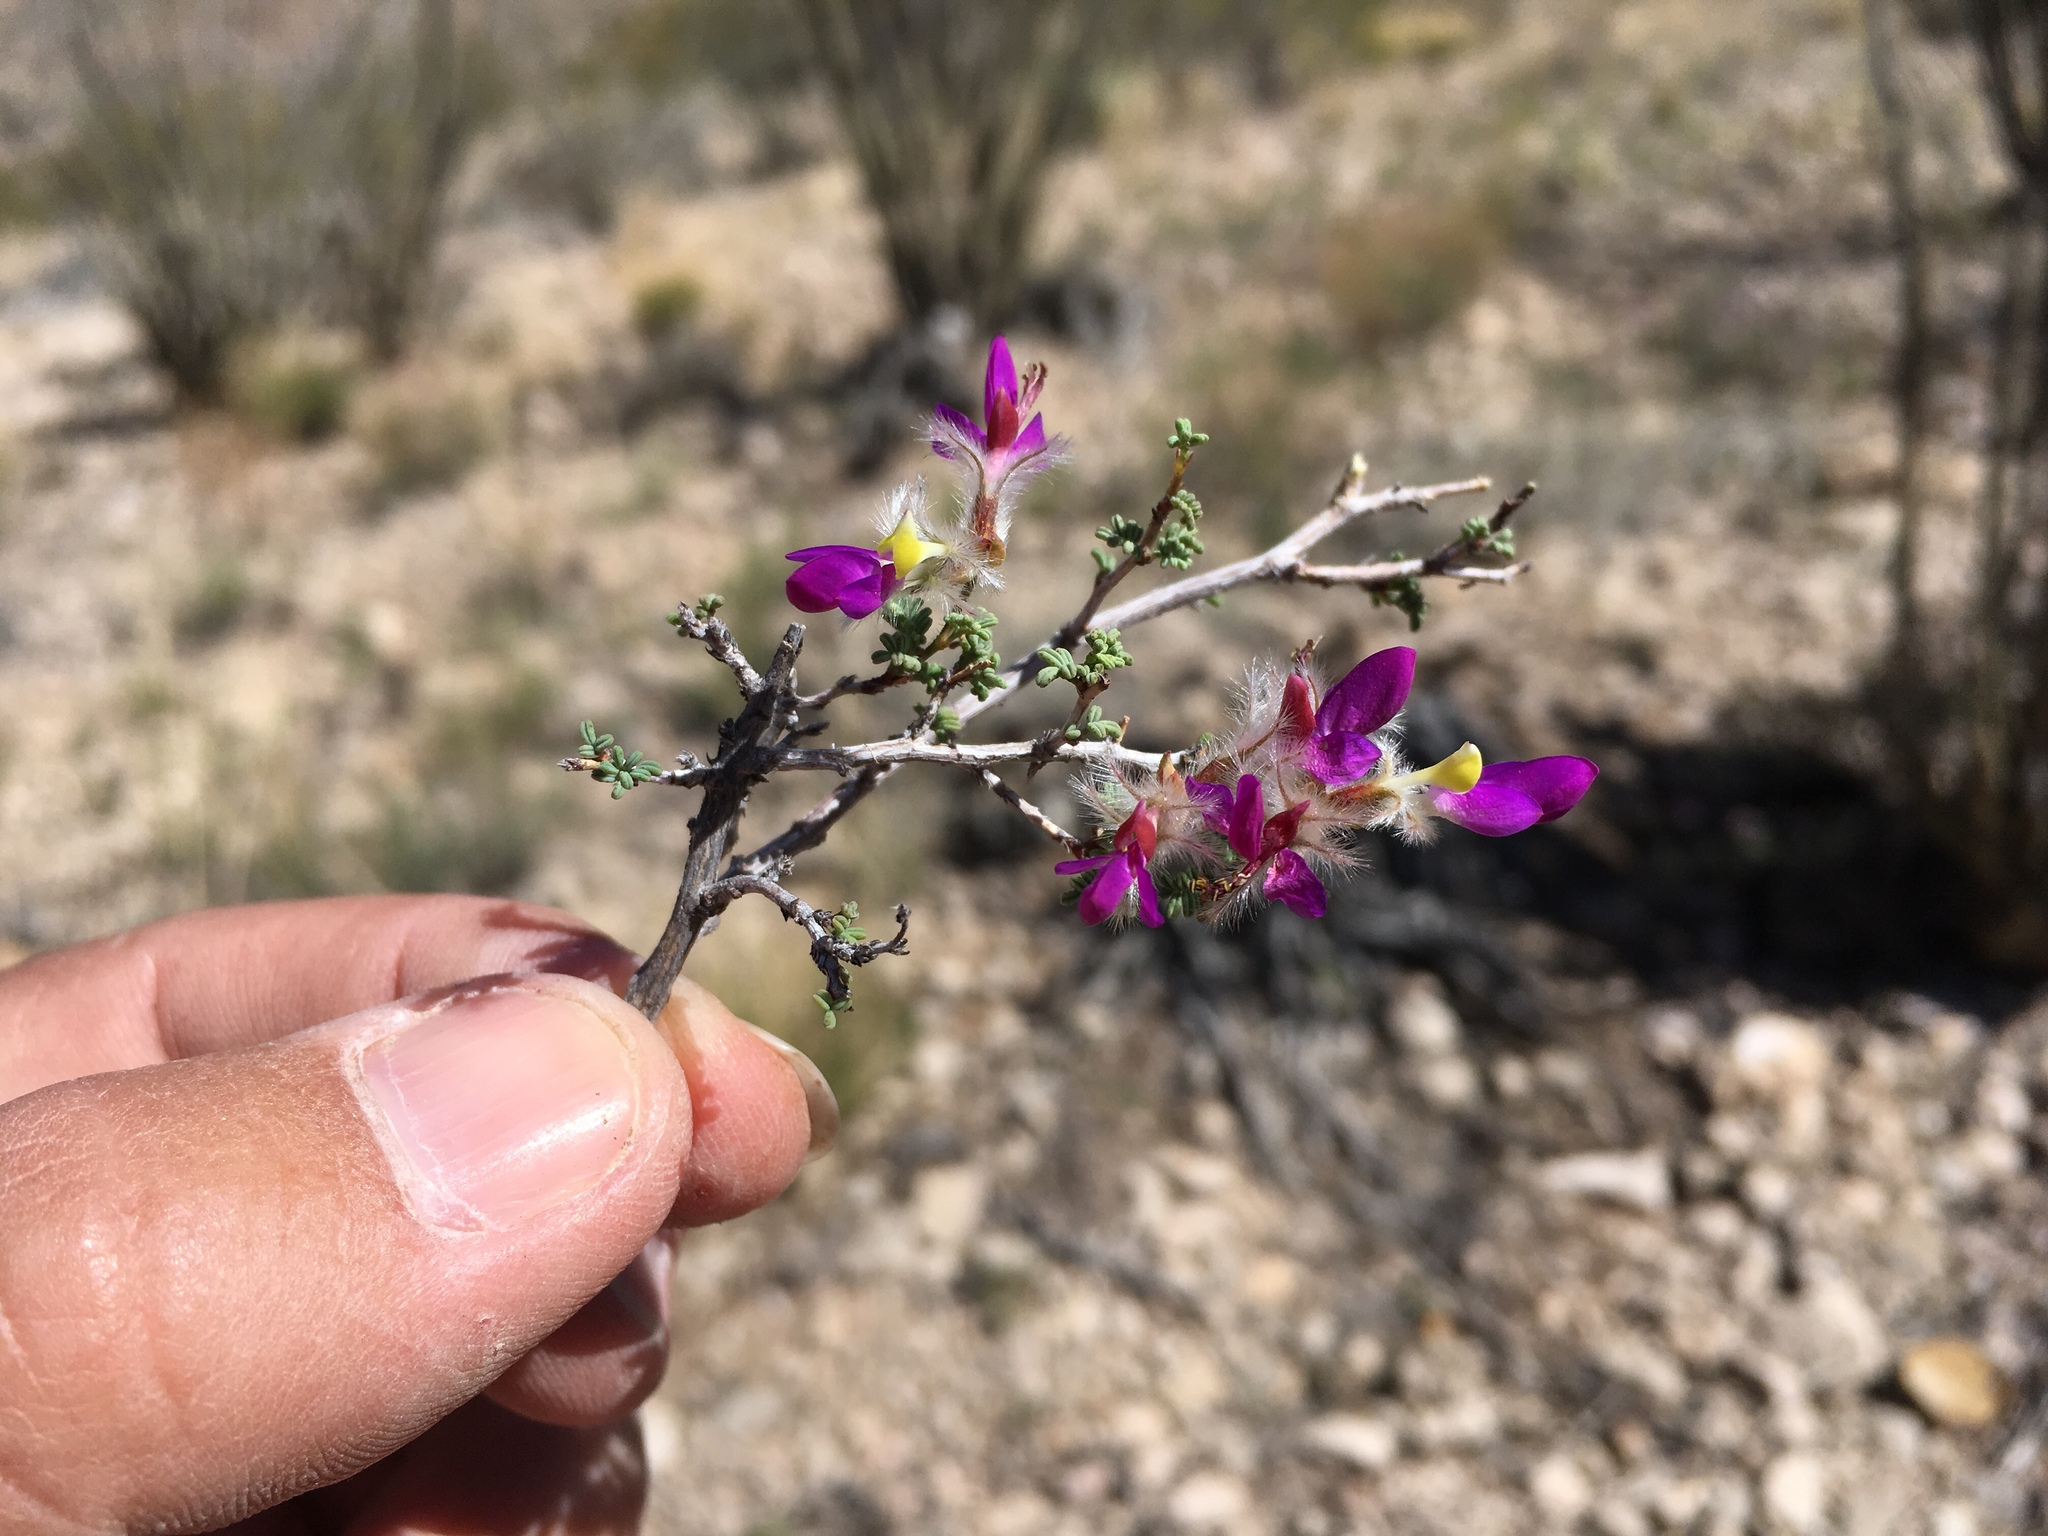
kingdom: Plantae
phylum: Tracheophyta
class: Magnoliopsida
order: Fabales
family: Fabaceae
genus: Dalea
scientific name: Dalea formosa
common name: Feather-plume dalea
